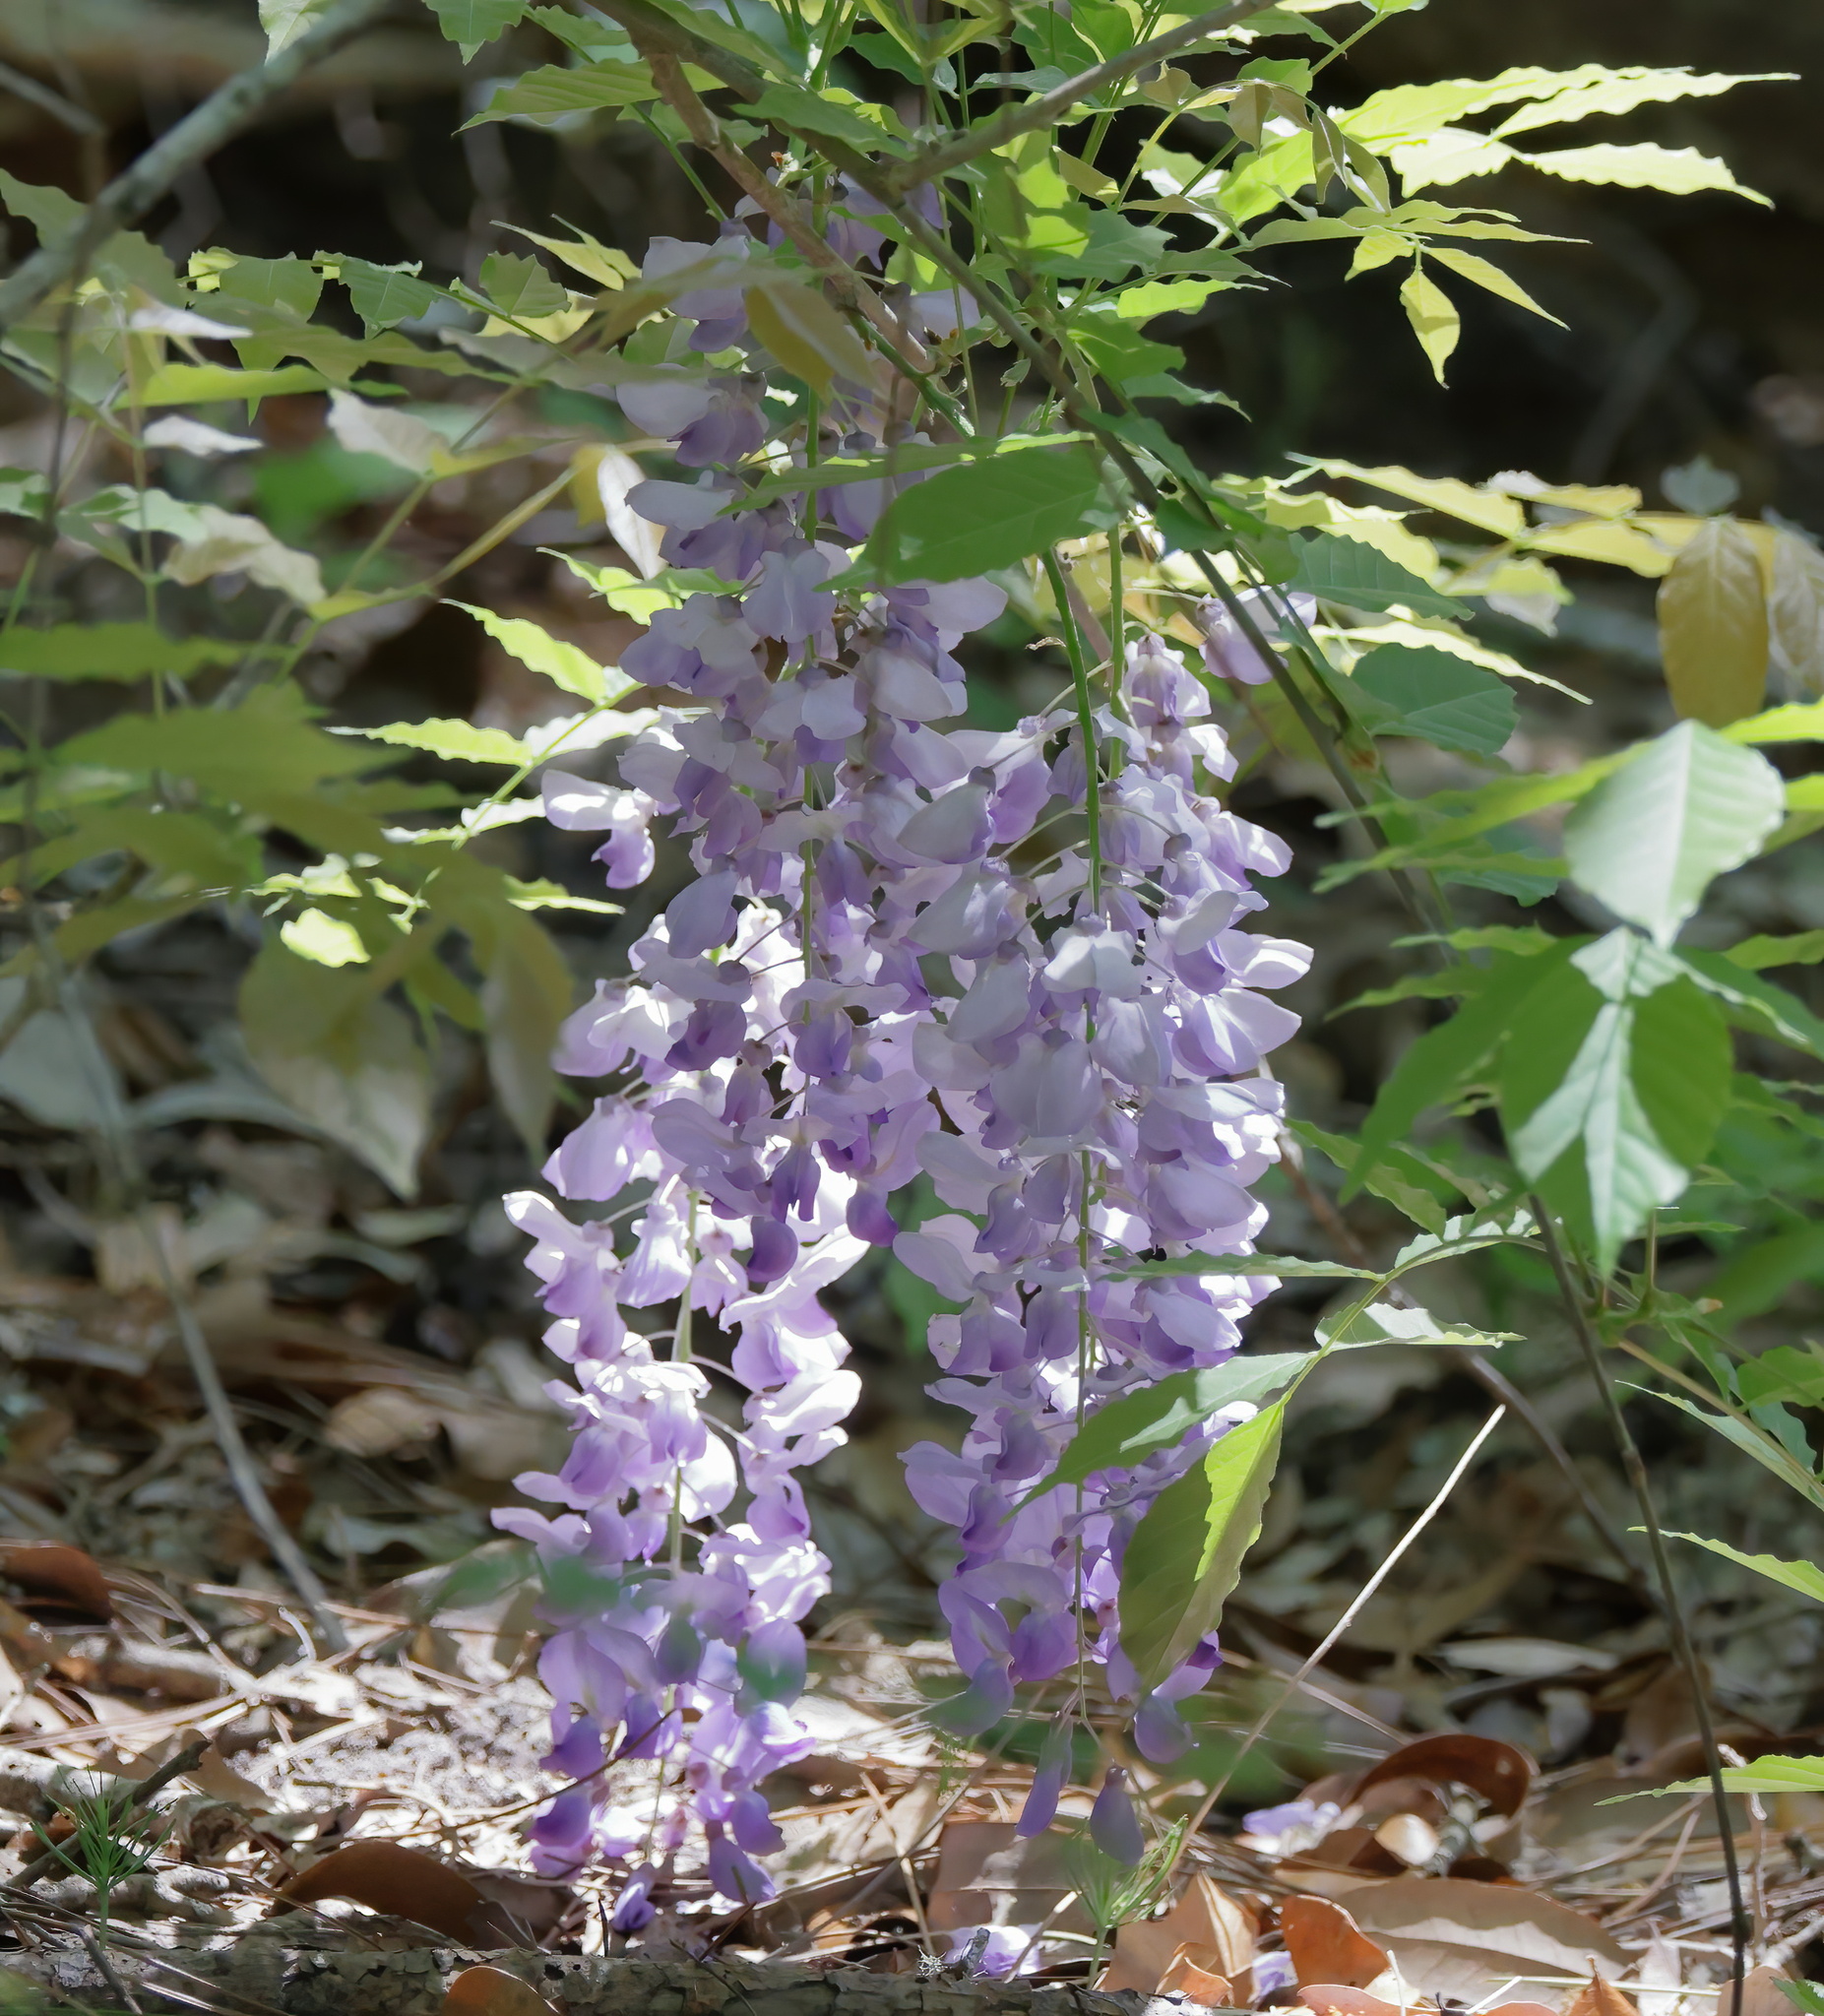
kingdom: Plantae
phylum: Tracheophyta
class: Magnoliopsida
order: Fabales
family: Fabaceae
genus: Wisteria
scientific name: Wisteria sinensis
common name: Chinese wisteria
